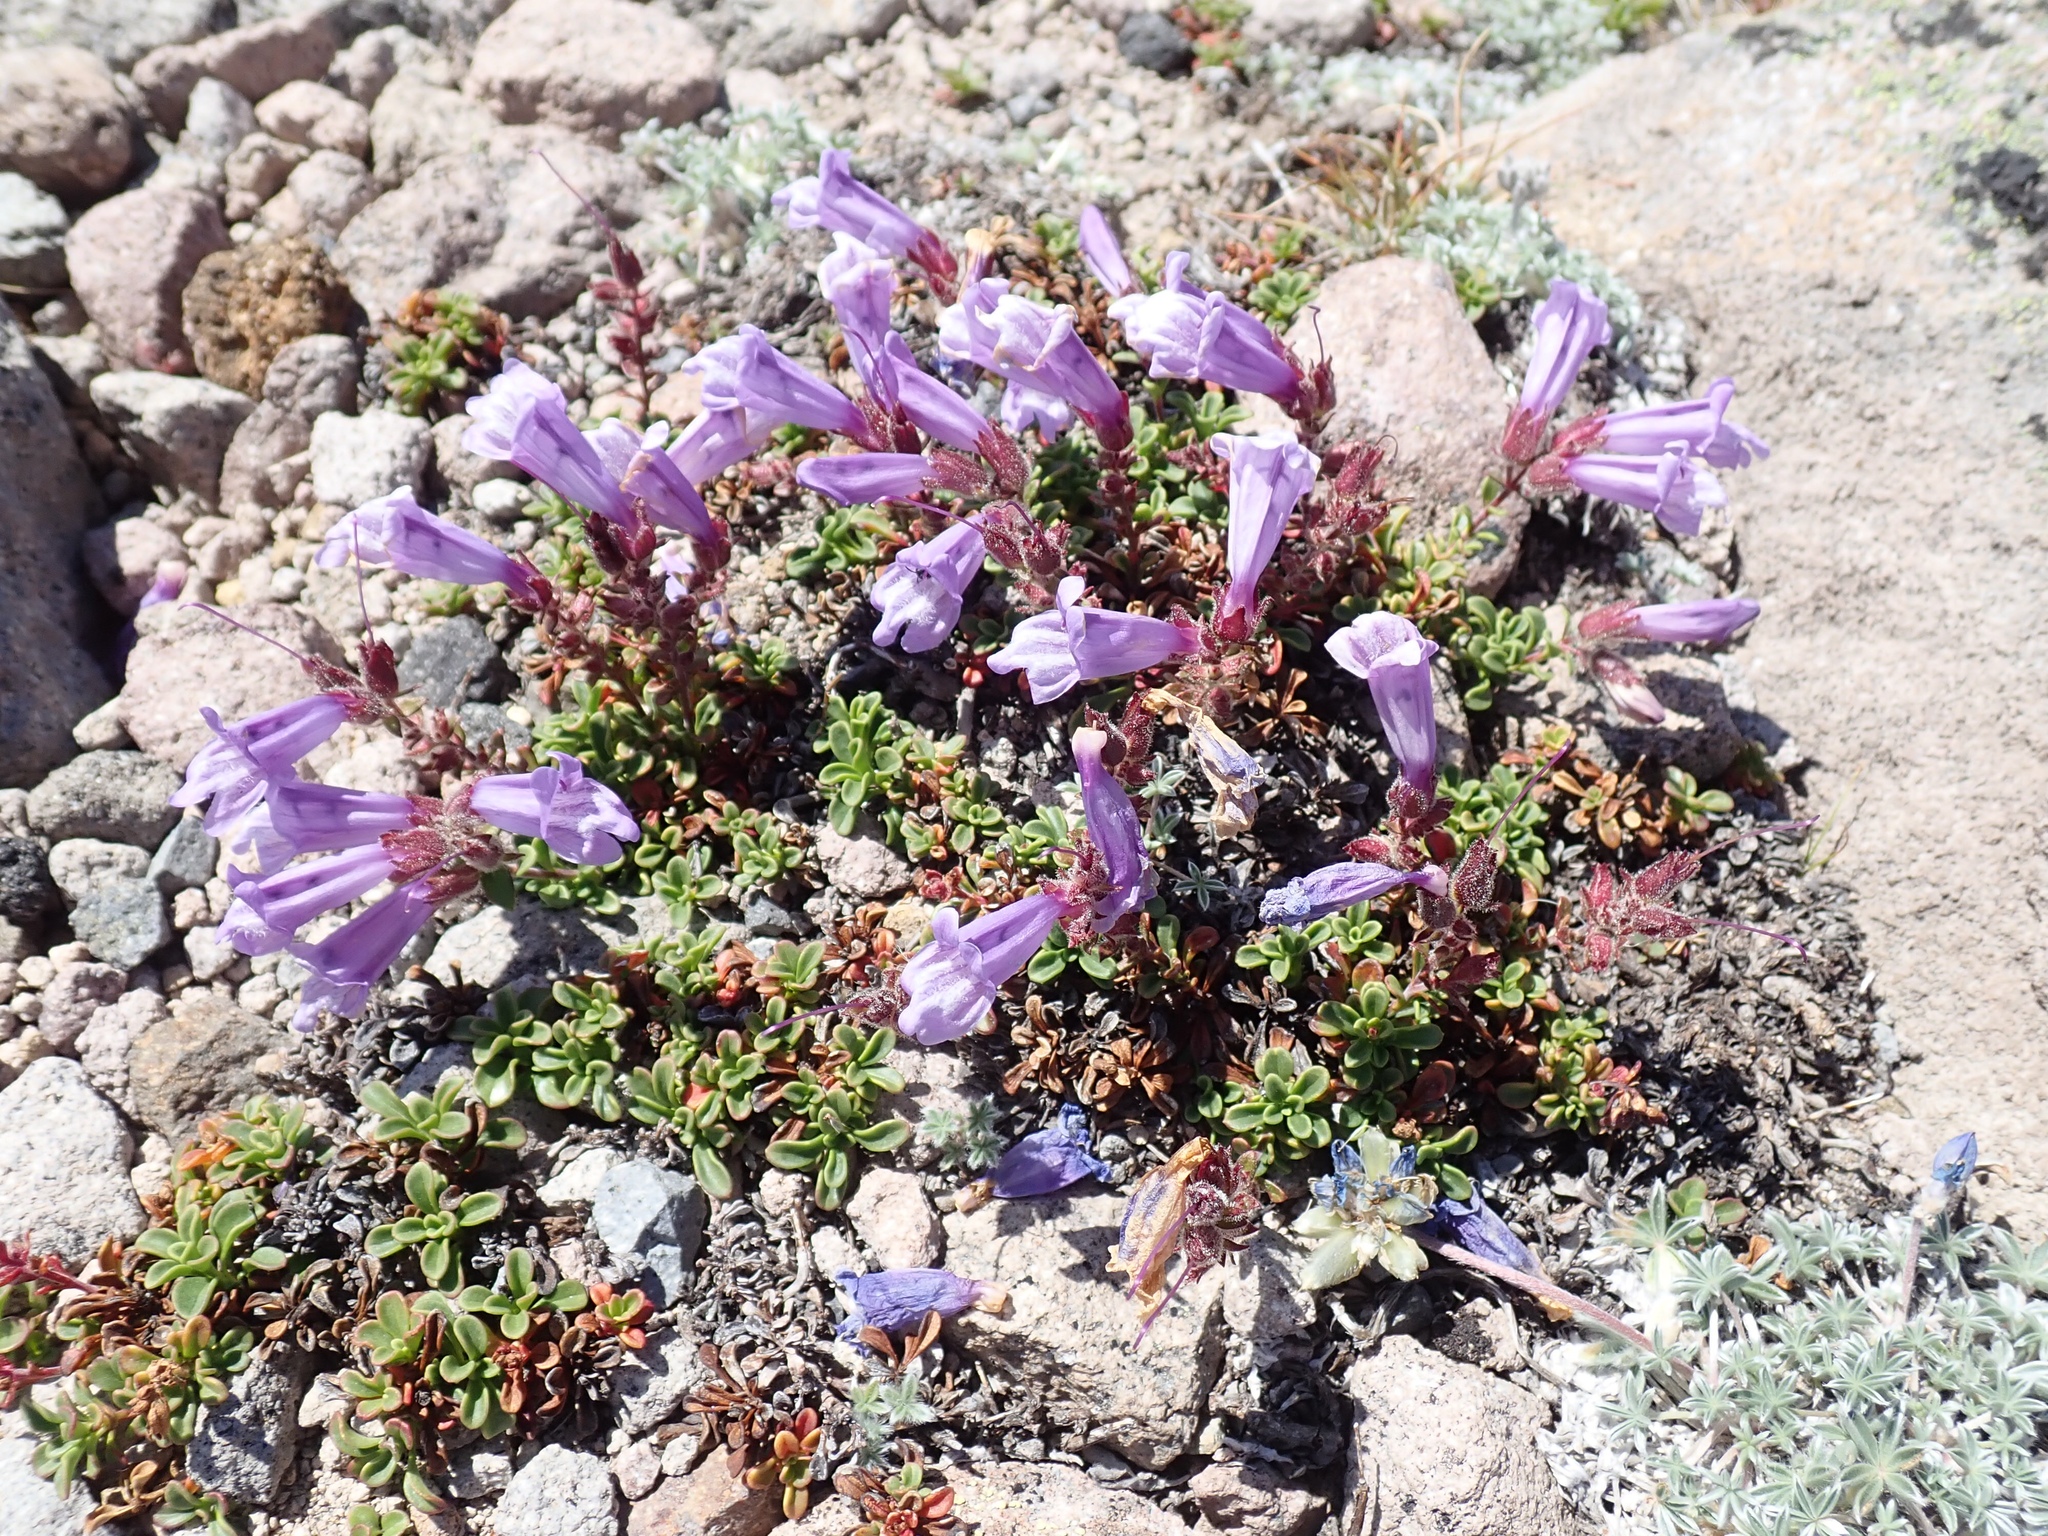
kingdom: Plantae
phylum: Tracheophyta
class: Magnoliopsida
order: Lamiales
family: Plantaginaceae
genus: Penstemon
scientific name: Penstemon davidsonii
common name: Davidson's penstemon
